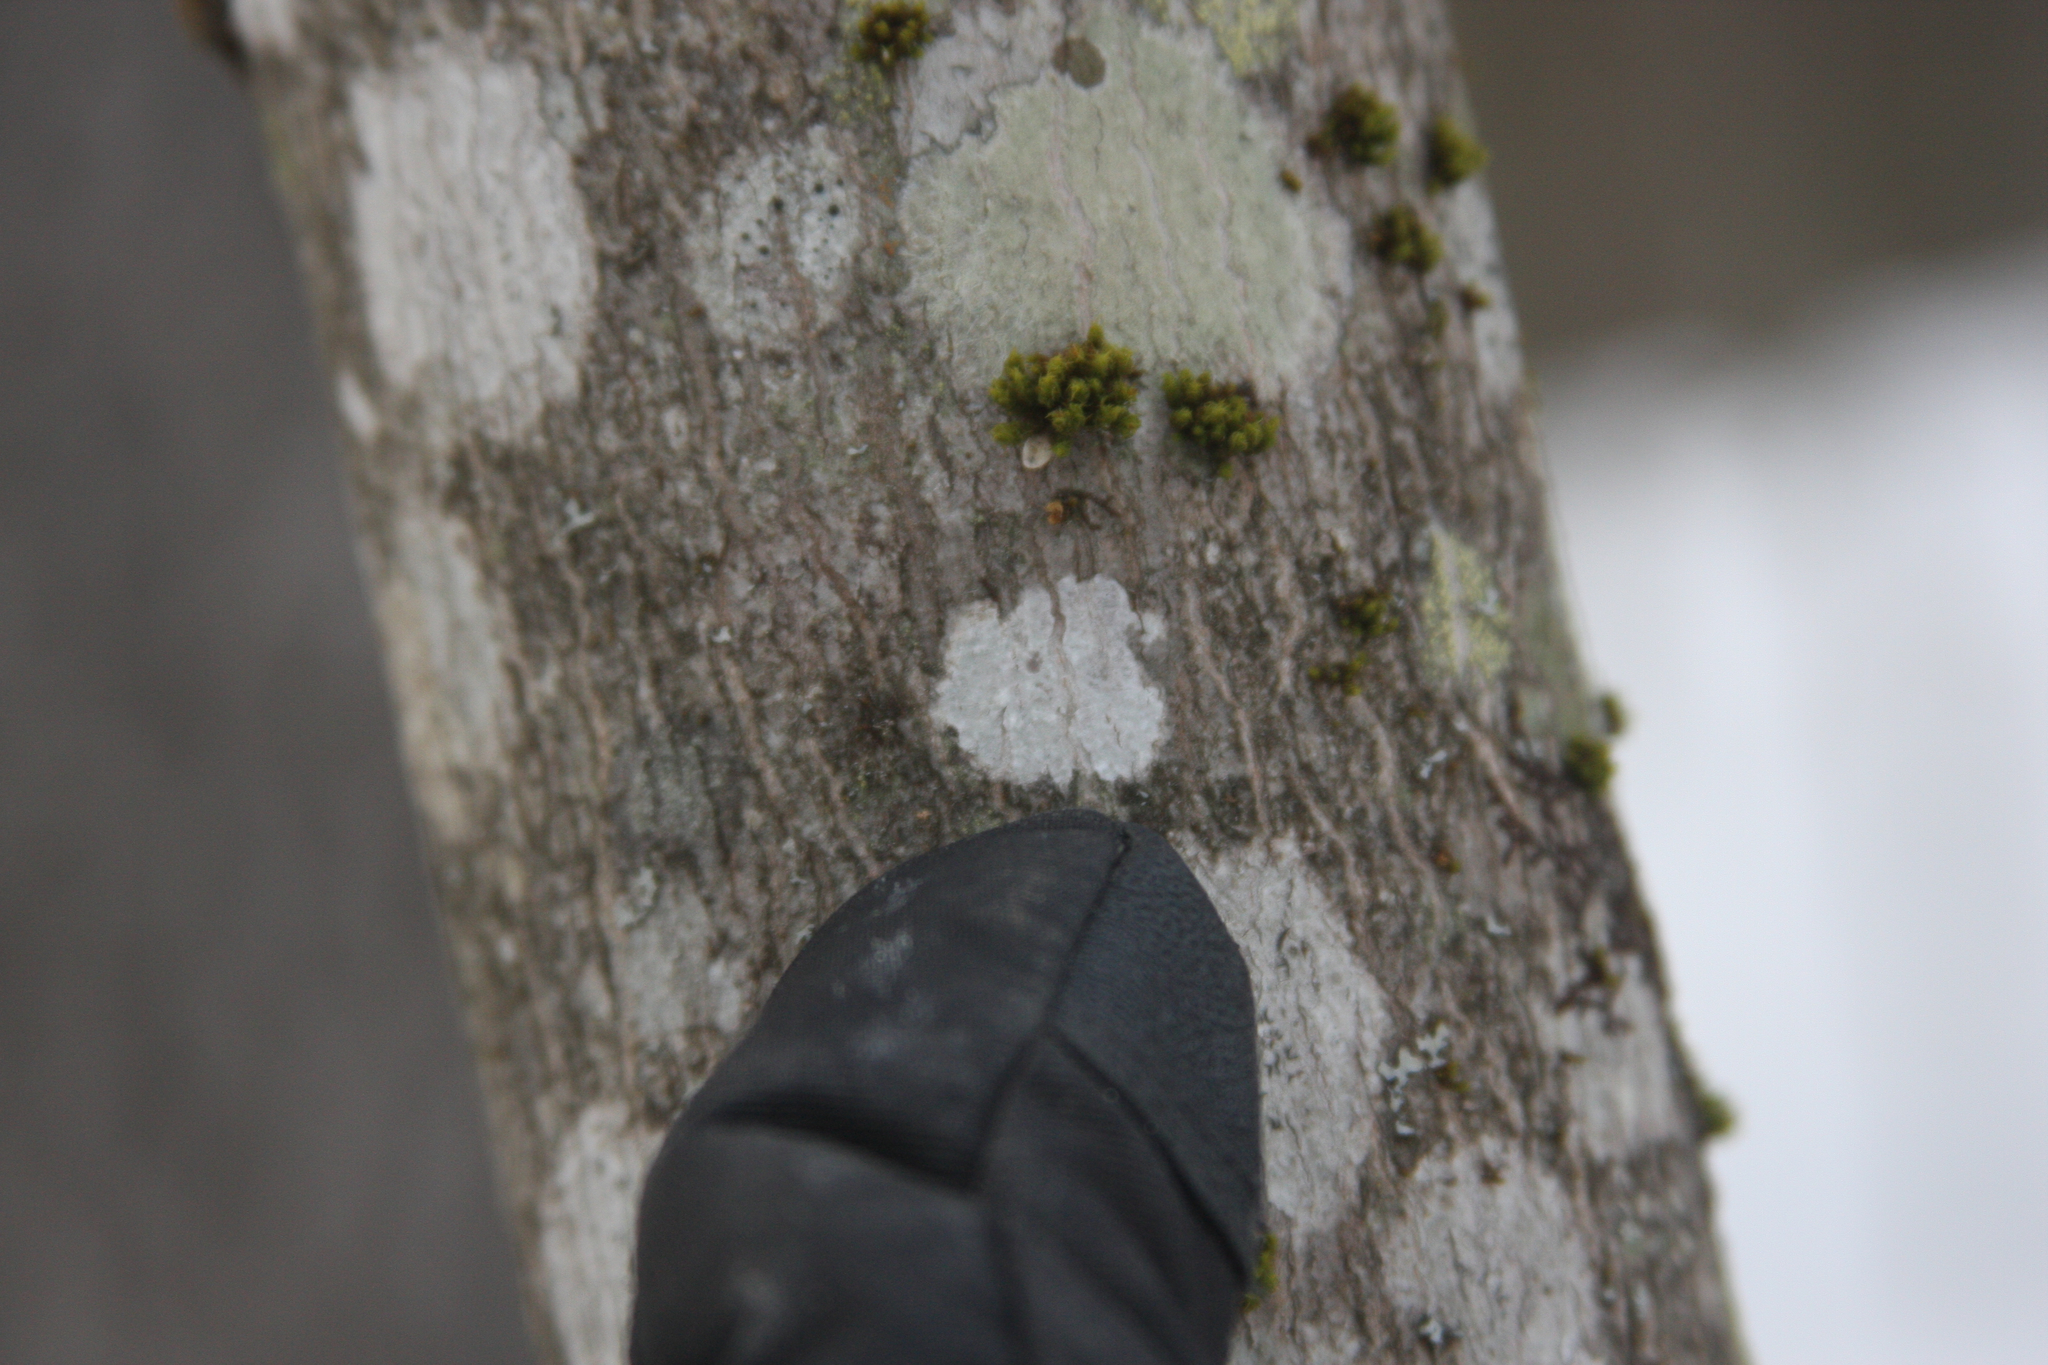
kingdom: Plantae
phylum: Bryophyta
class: Bryopsida
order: Orthotrichales
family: Orthotrichaceae
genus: Ulota
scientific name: Ulota crispa
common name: Crisped pincushion moss
